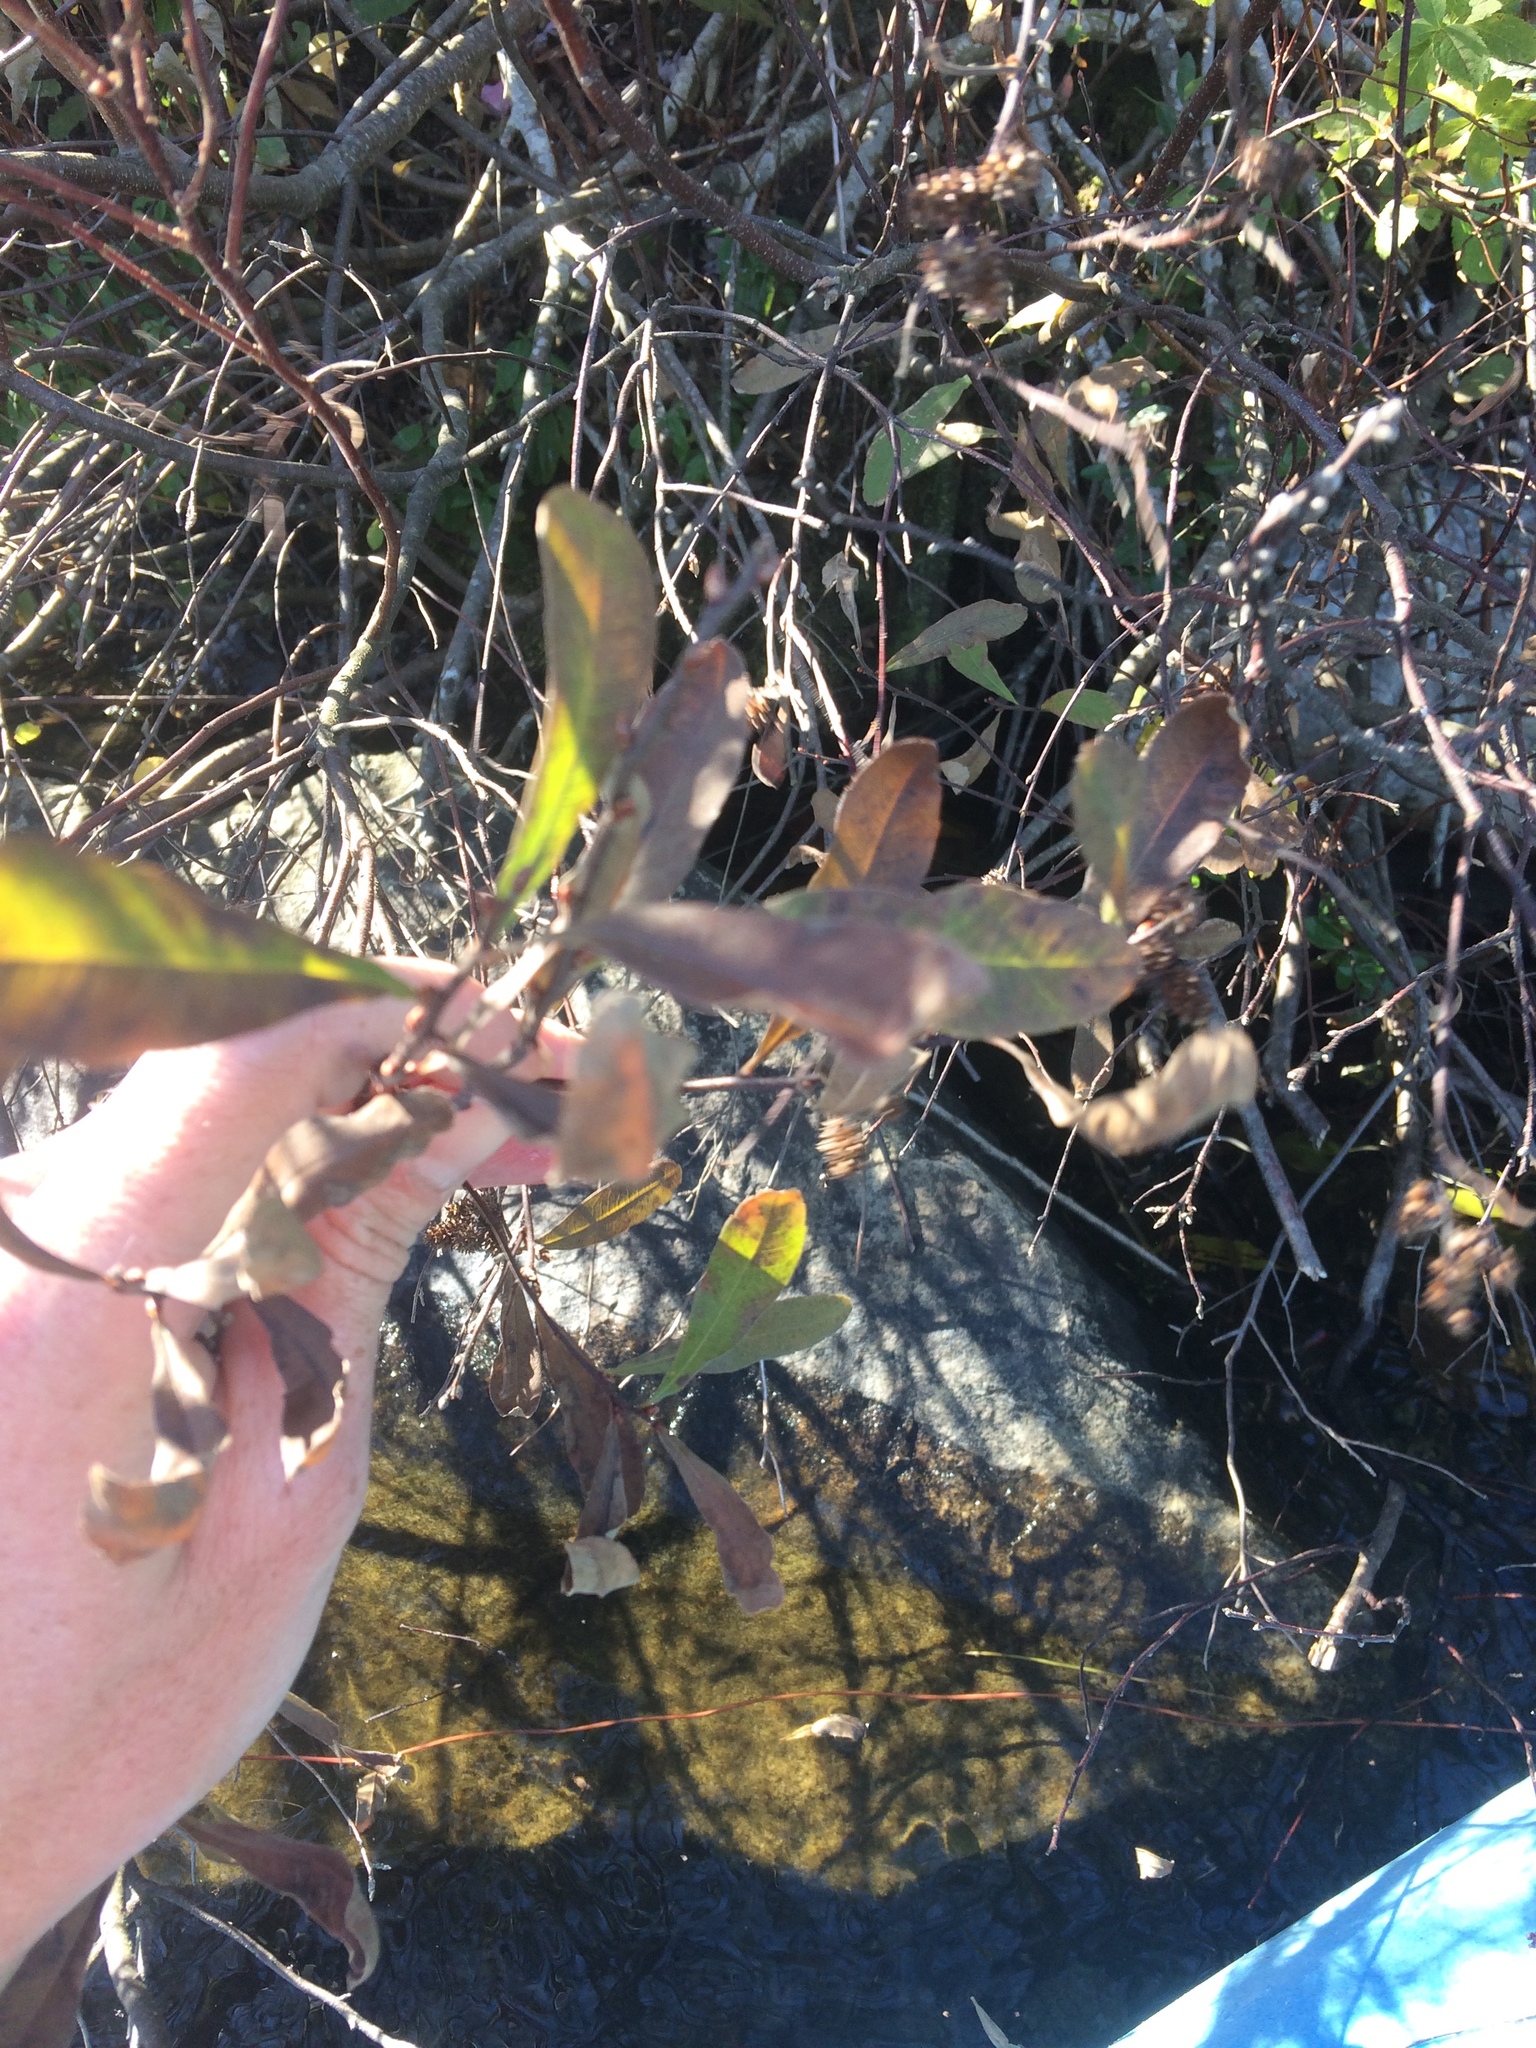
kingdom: Plantae
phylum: Tracheophyta
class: Magnoliopsida
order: Fagales
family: Myricaceae
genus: Myrica
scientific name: Myrica gale
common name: Sweet gale
